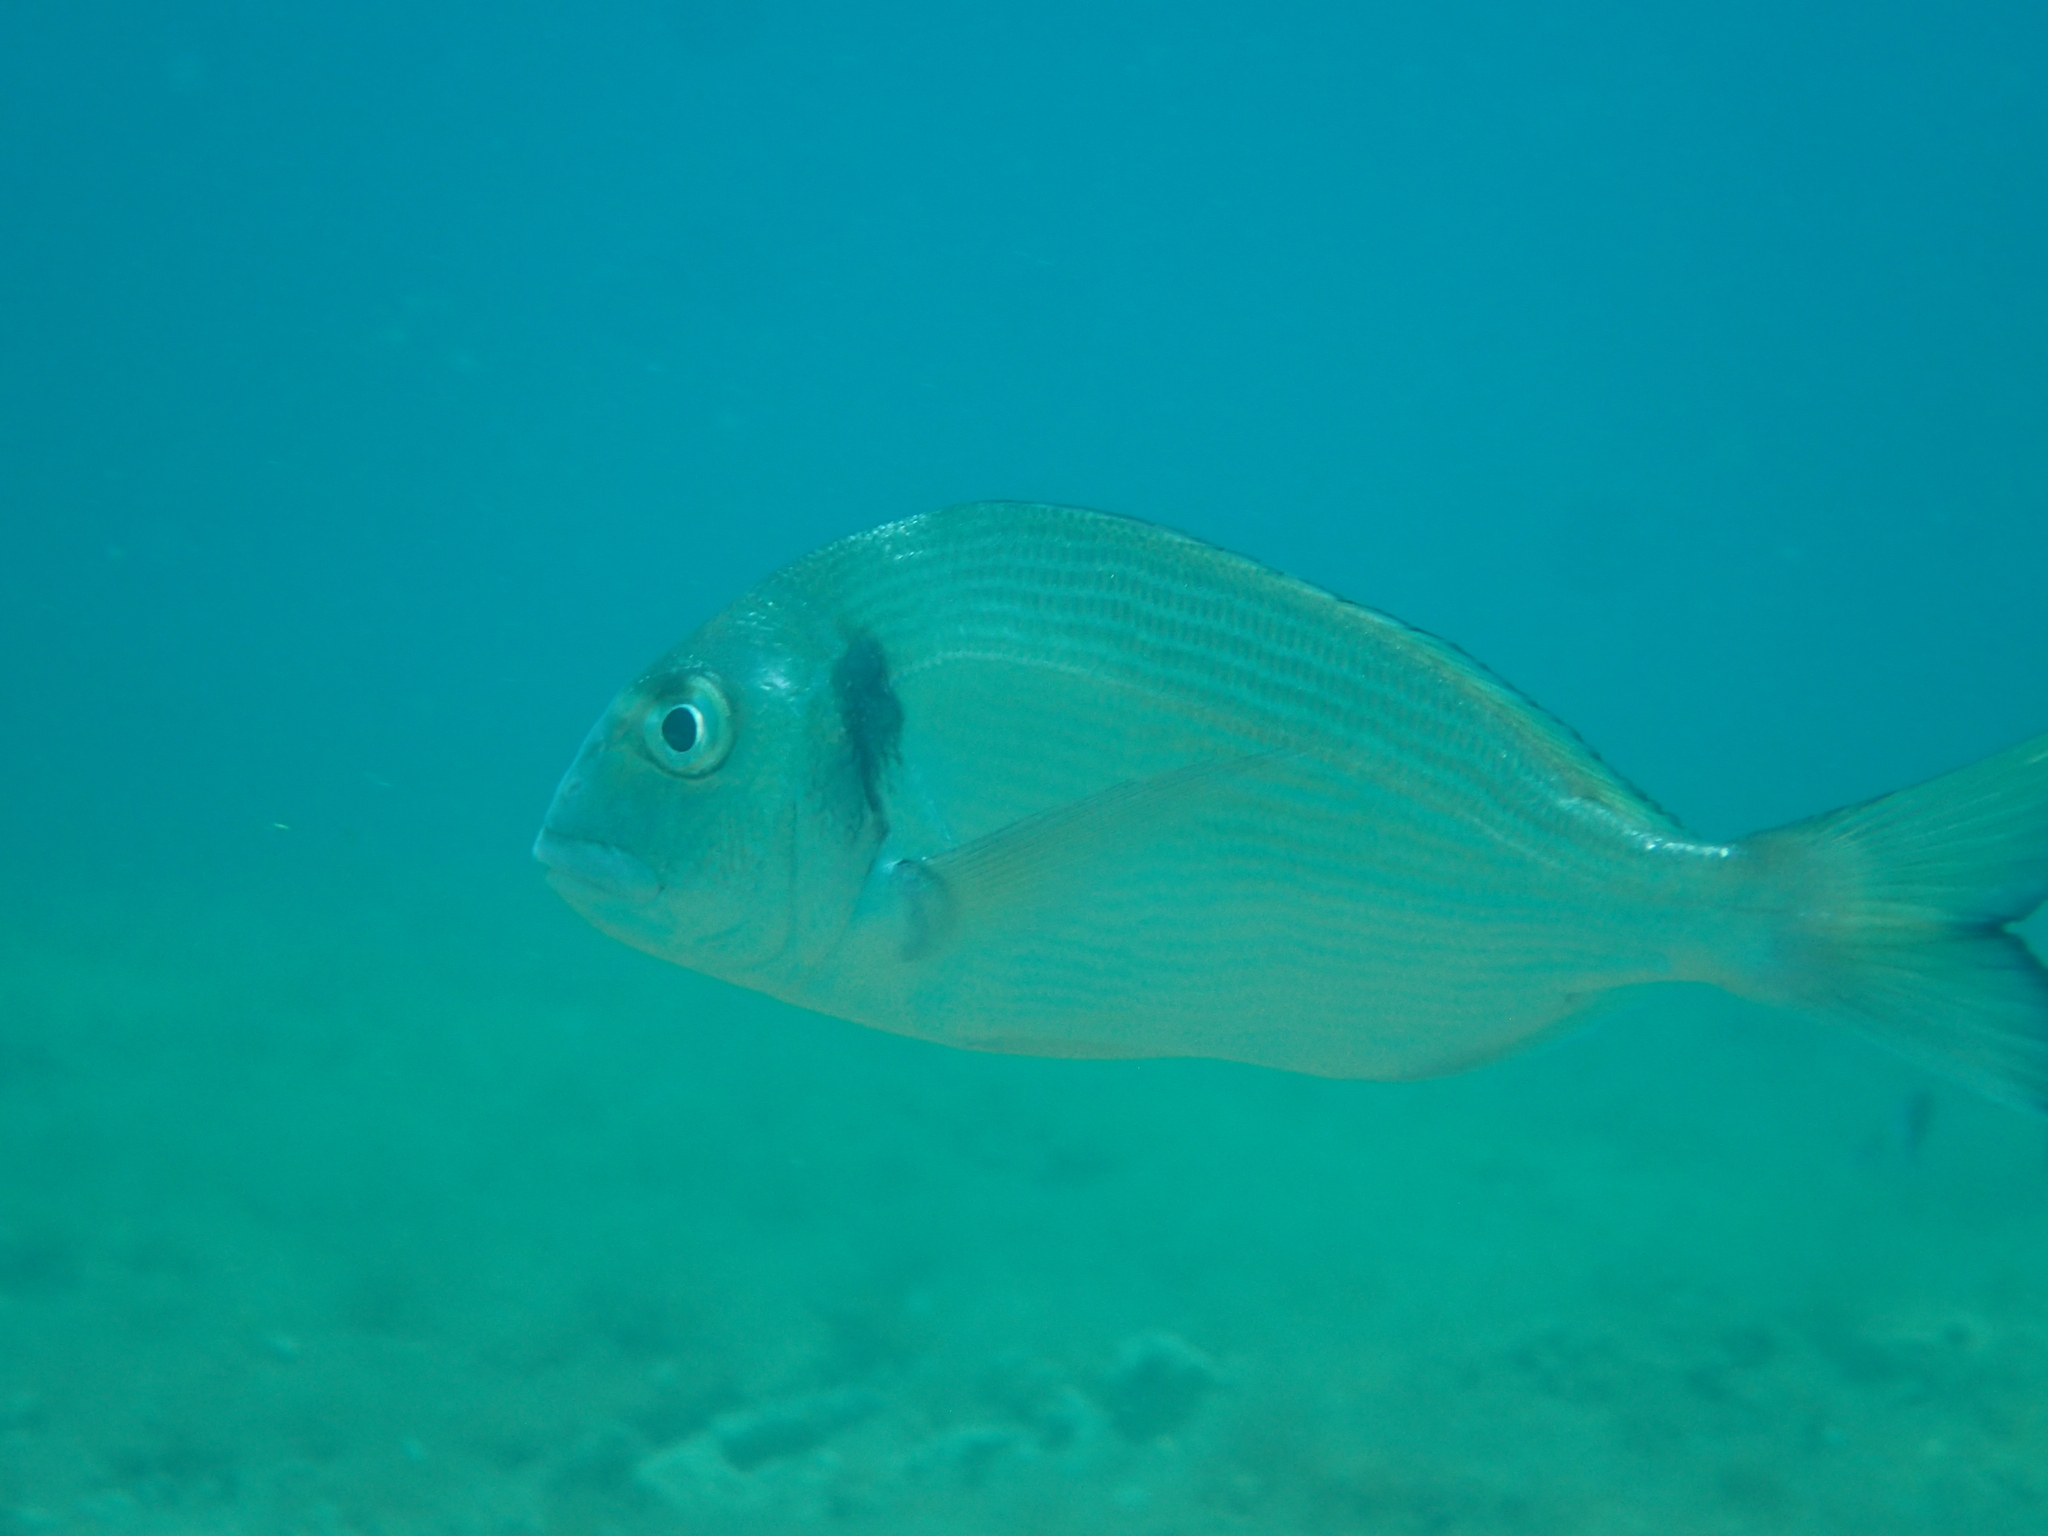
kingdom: Animalia
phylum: Chordata
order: Perciformes
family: Sparidae
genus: Sparus
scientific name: Sparus aurata
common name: Gilthead
